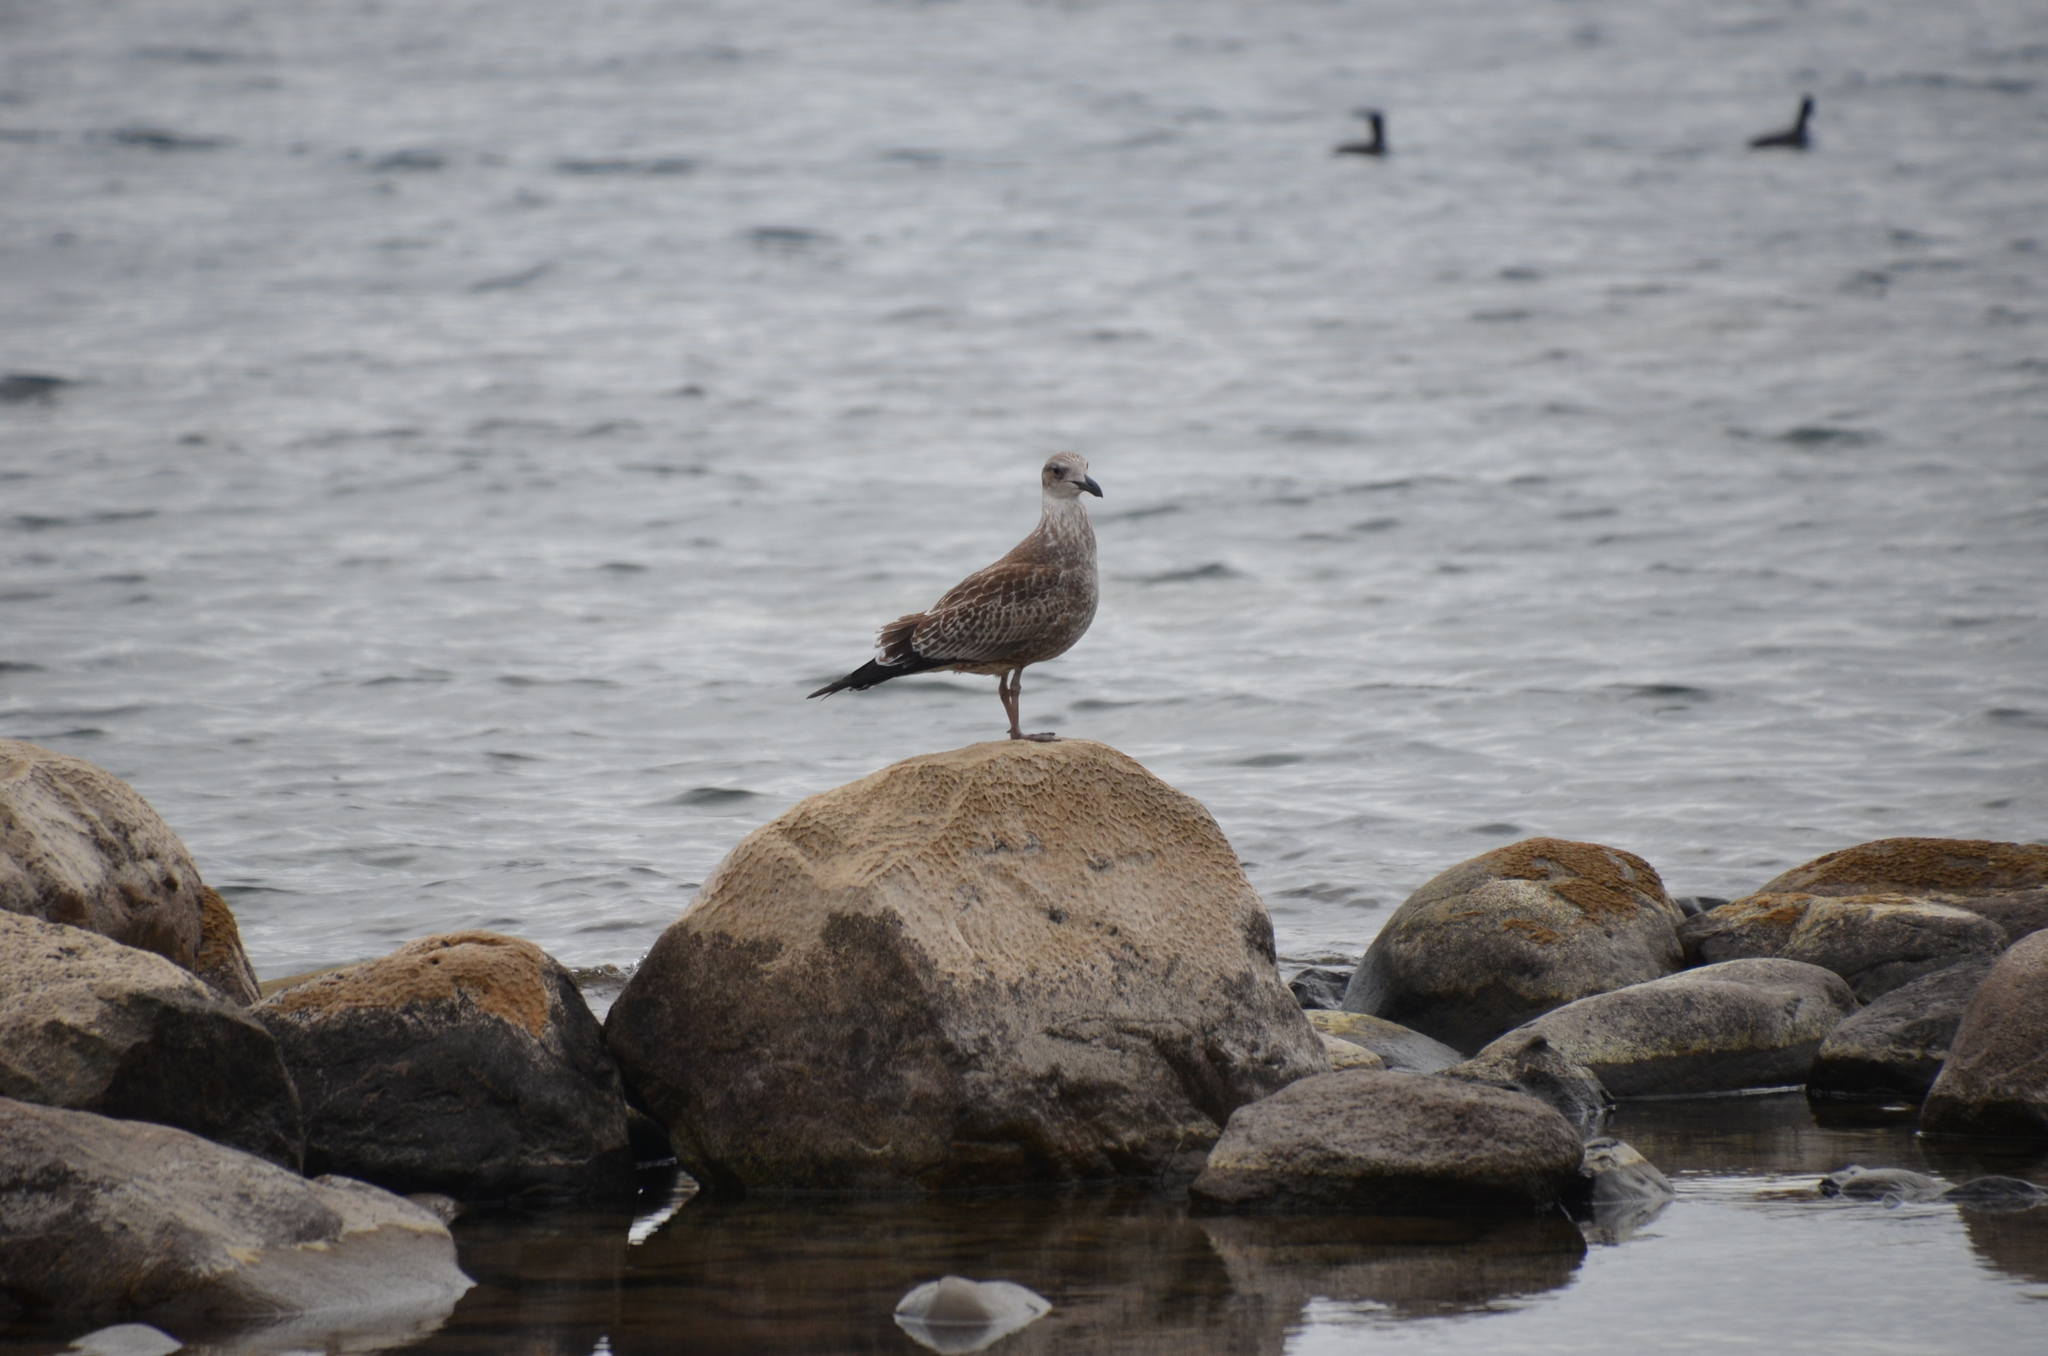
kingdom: Animalia
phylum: Chordata
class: Aves
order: Charadriiformes
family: Laridae
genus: Larus
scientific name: Larus dominicanus
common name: Kelp gull
